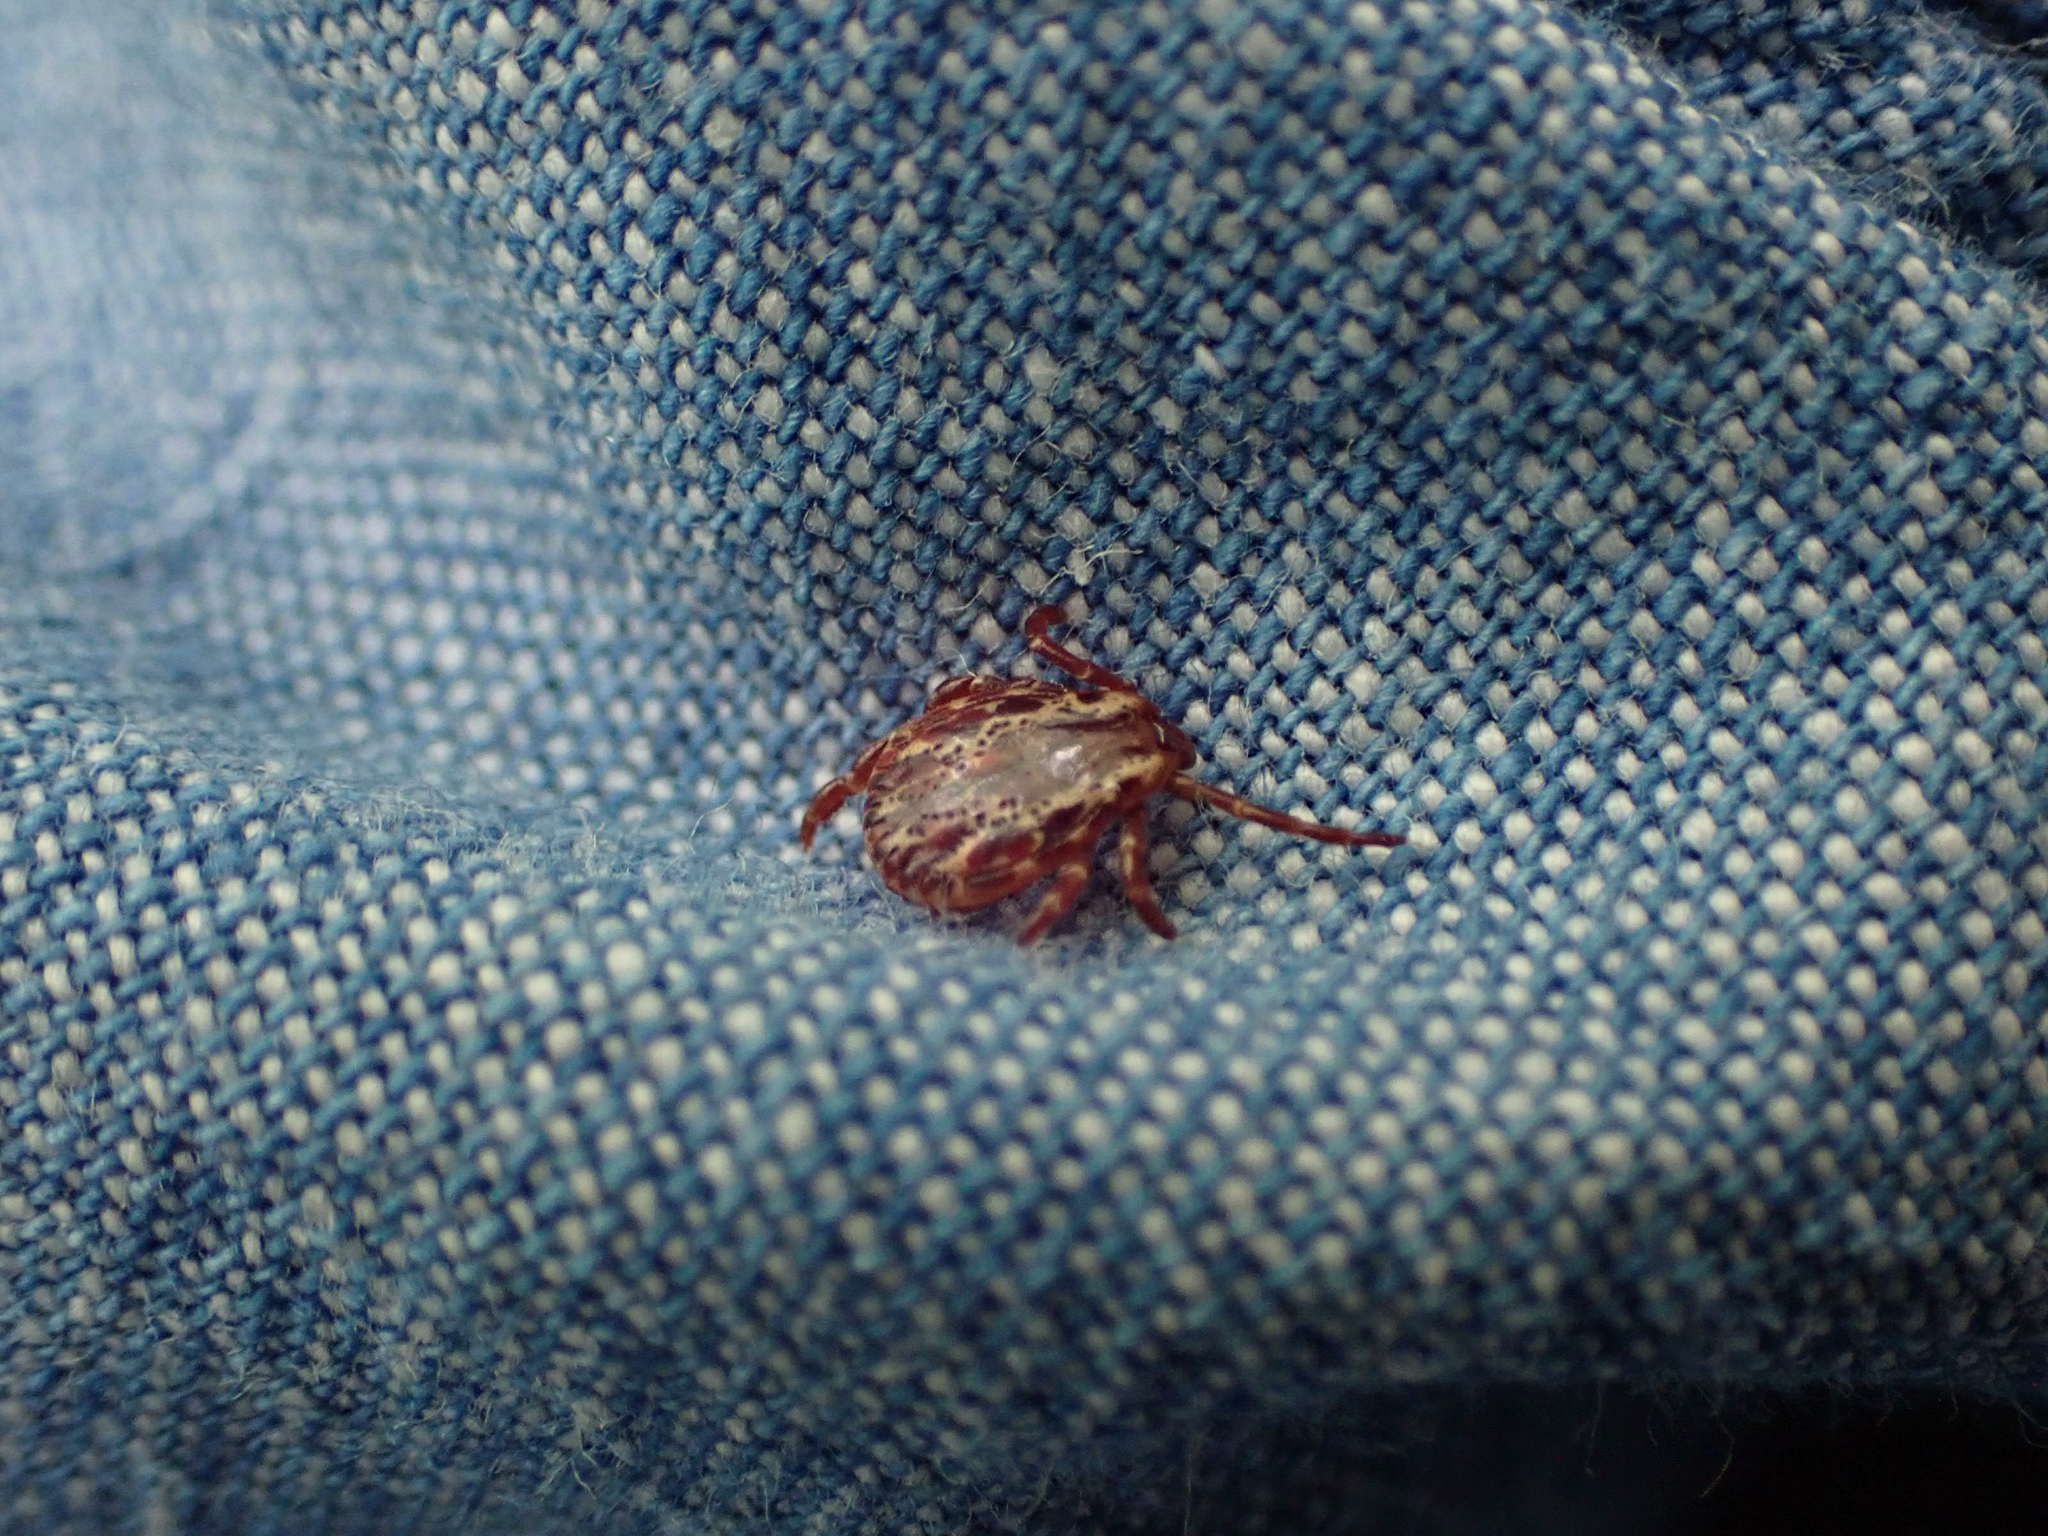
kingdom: Animalia
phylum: Arthropoda
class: Arachnida
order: Ixodida
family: Ixodidae
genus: Dermacentor
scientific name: Dermacentor variabilis
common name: American dog tick
